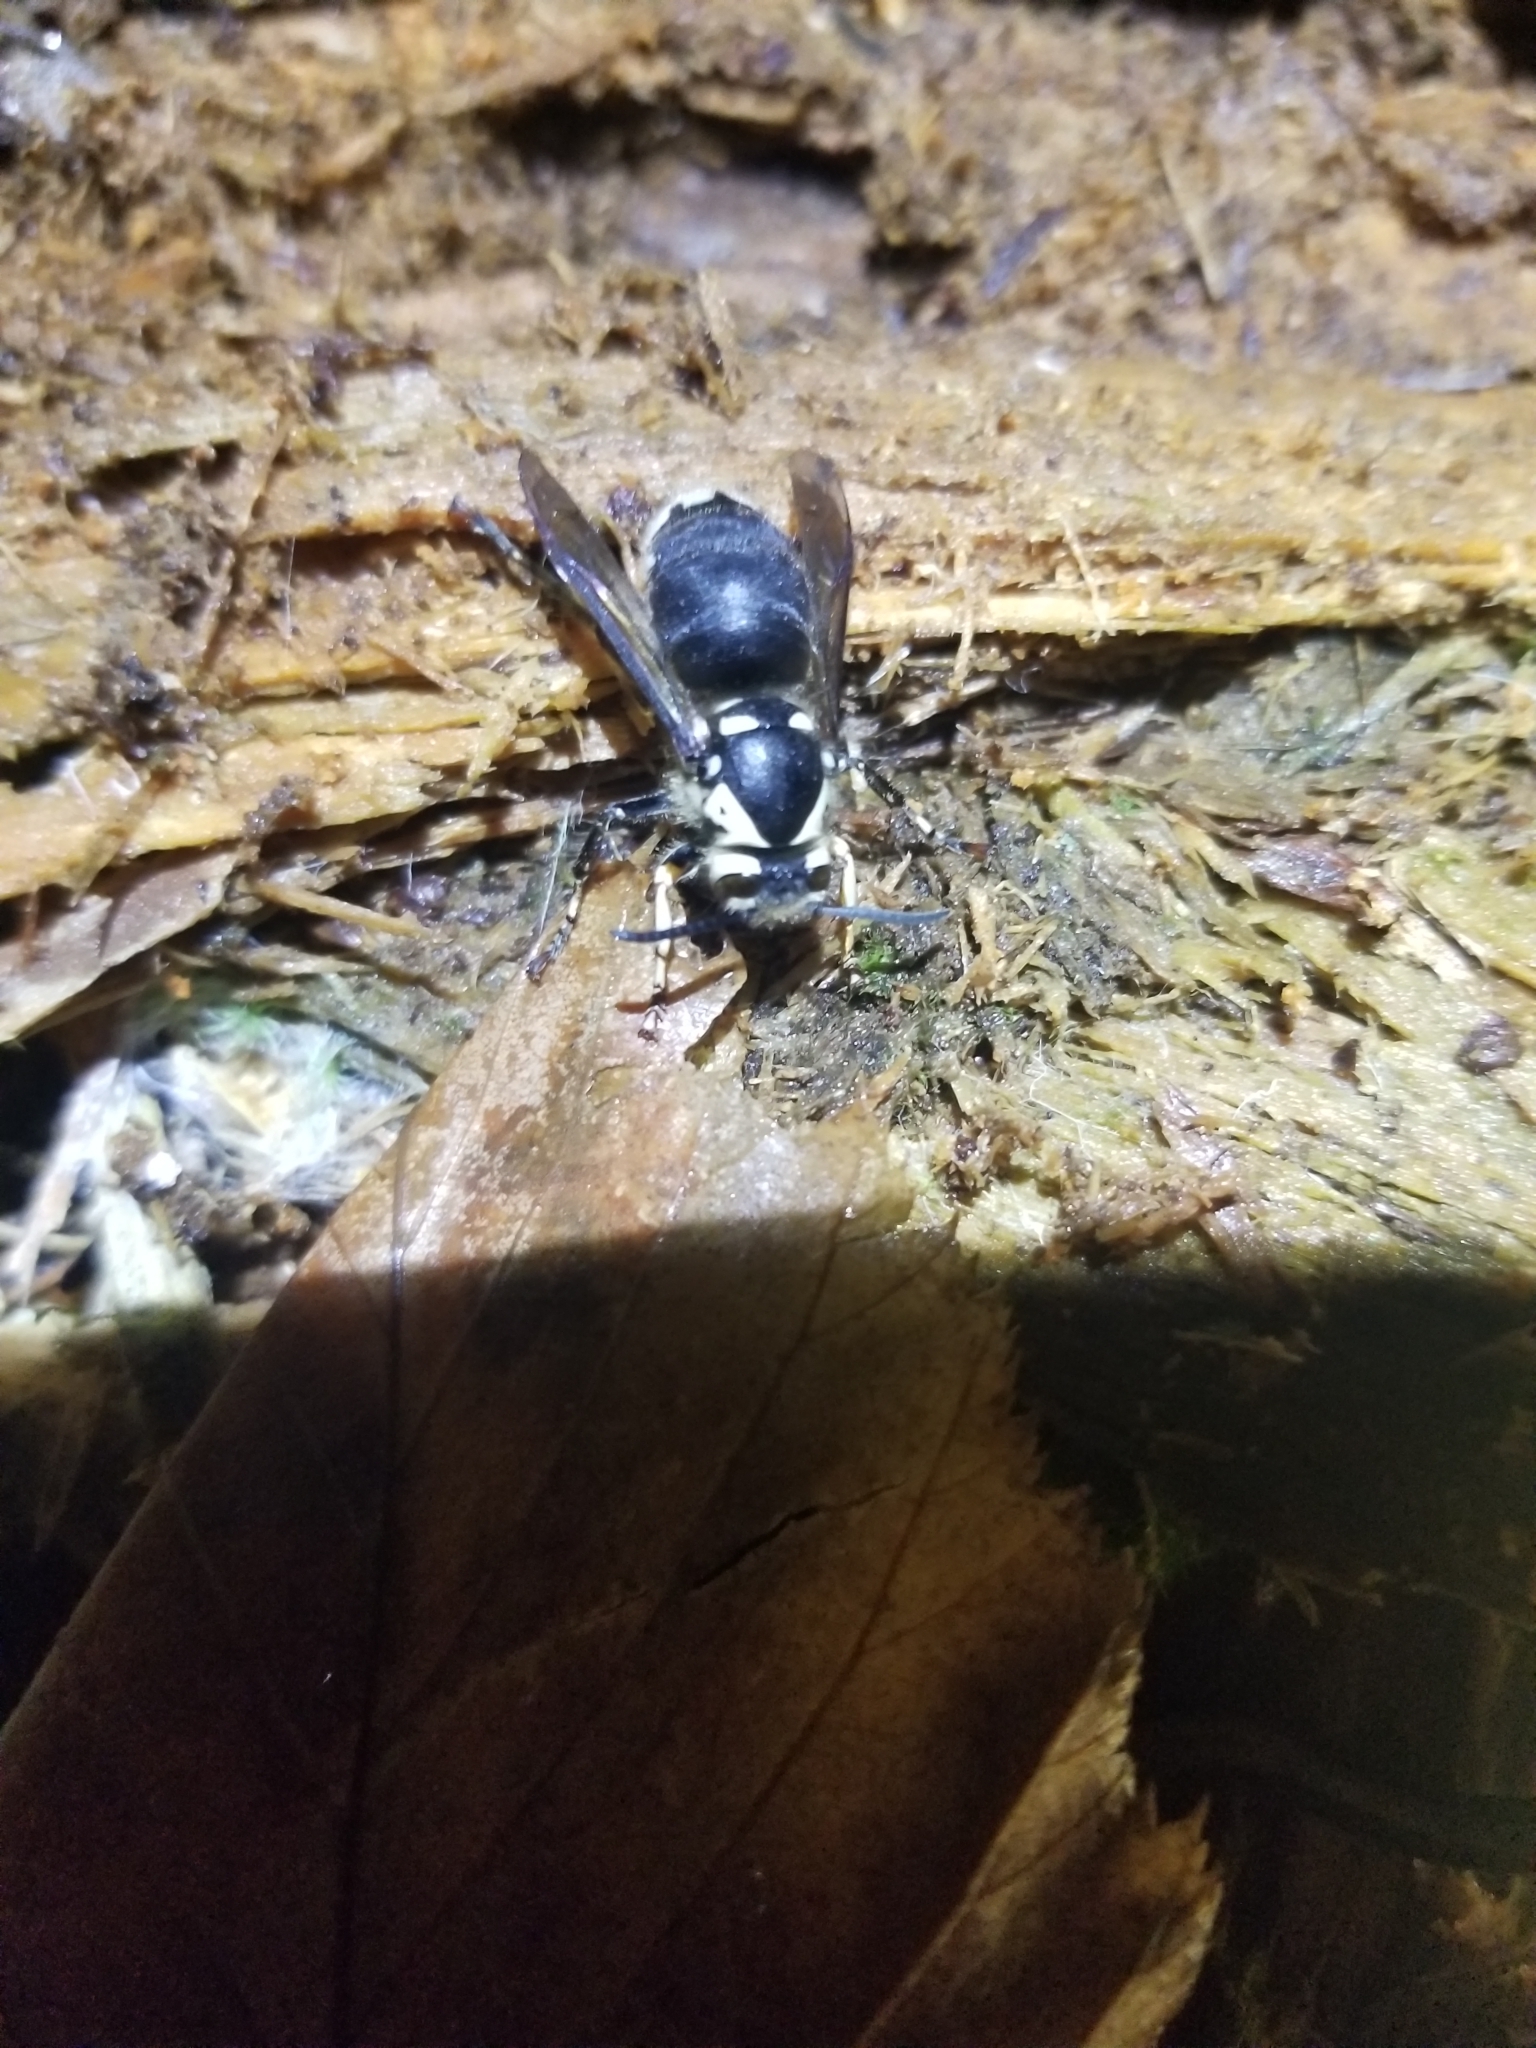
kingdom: Animalia
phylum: Arthropoda
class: Insecta
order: Hymenoptera
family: Vespidae
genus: Dolichovespula
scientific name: Dolichovespula maculata
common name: Bald-faced hornet
